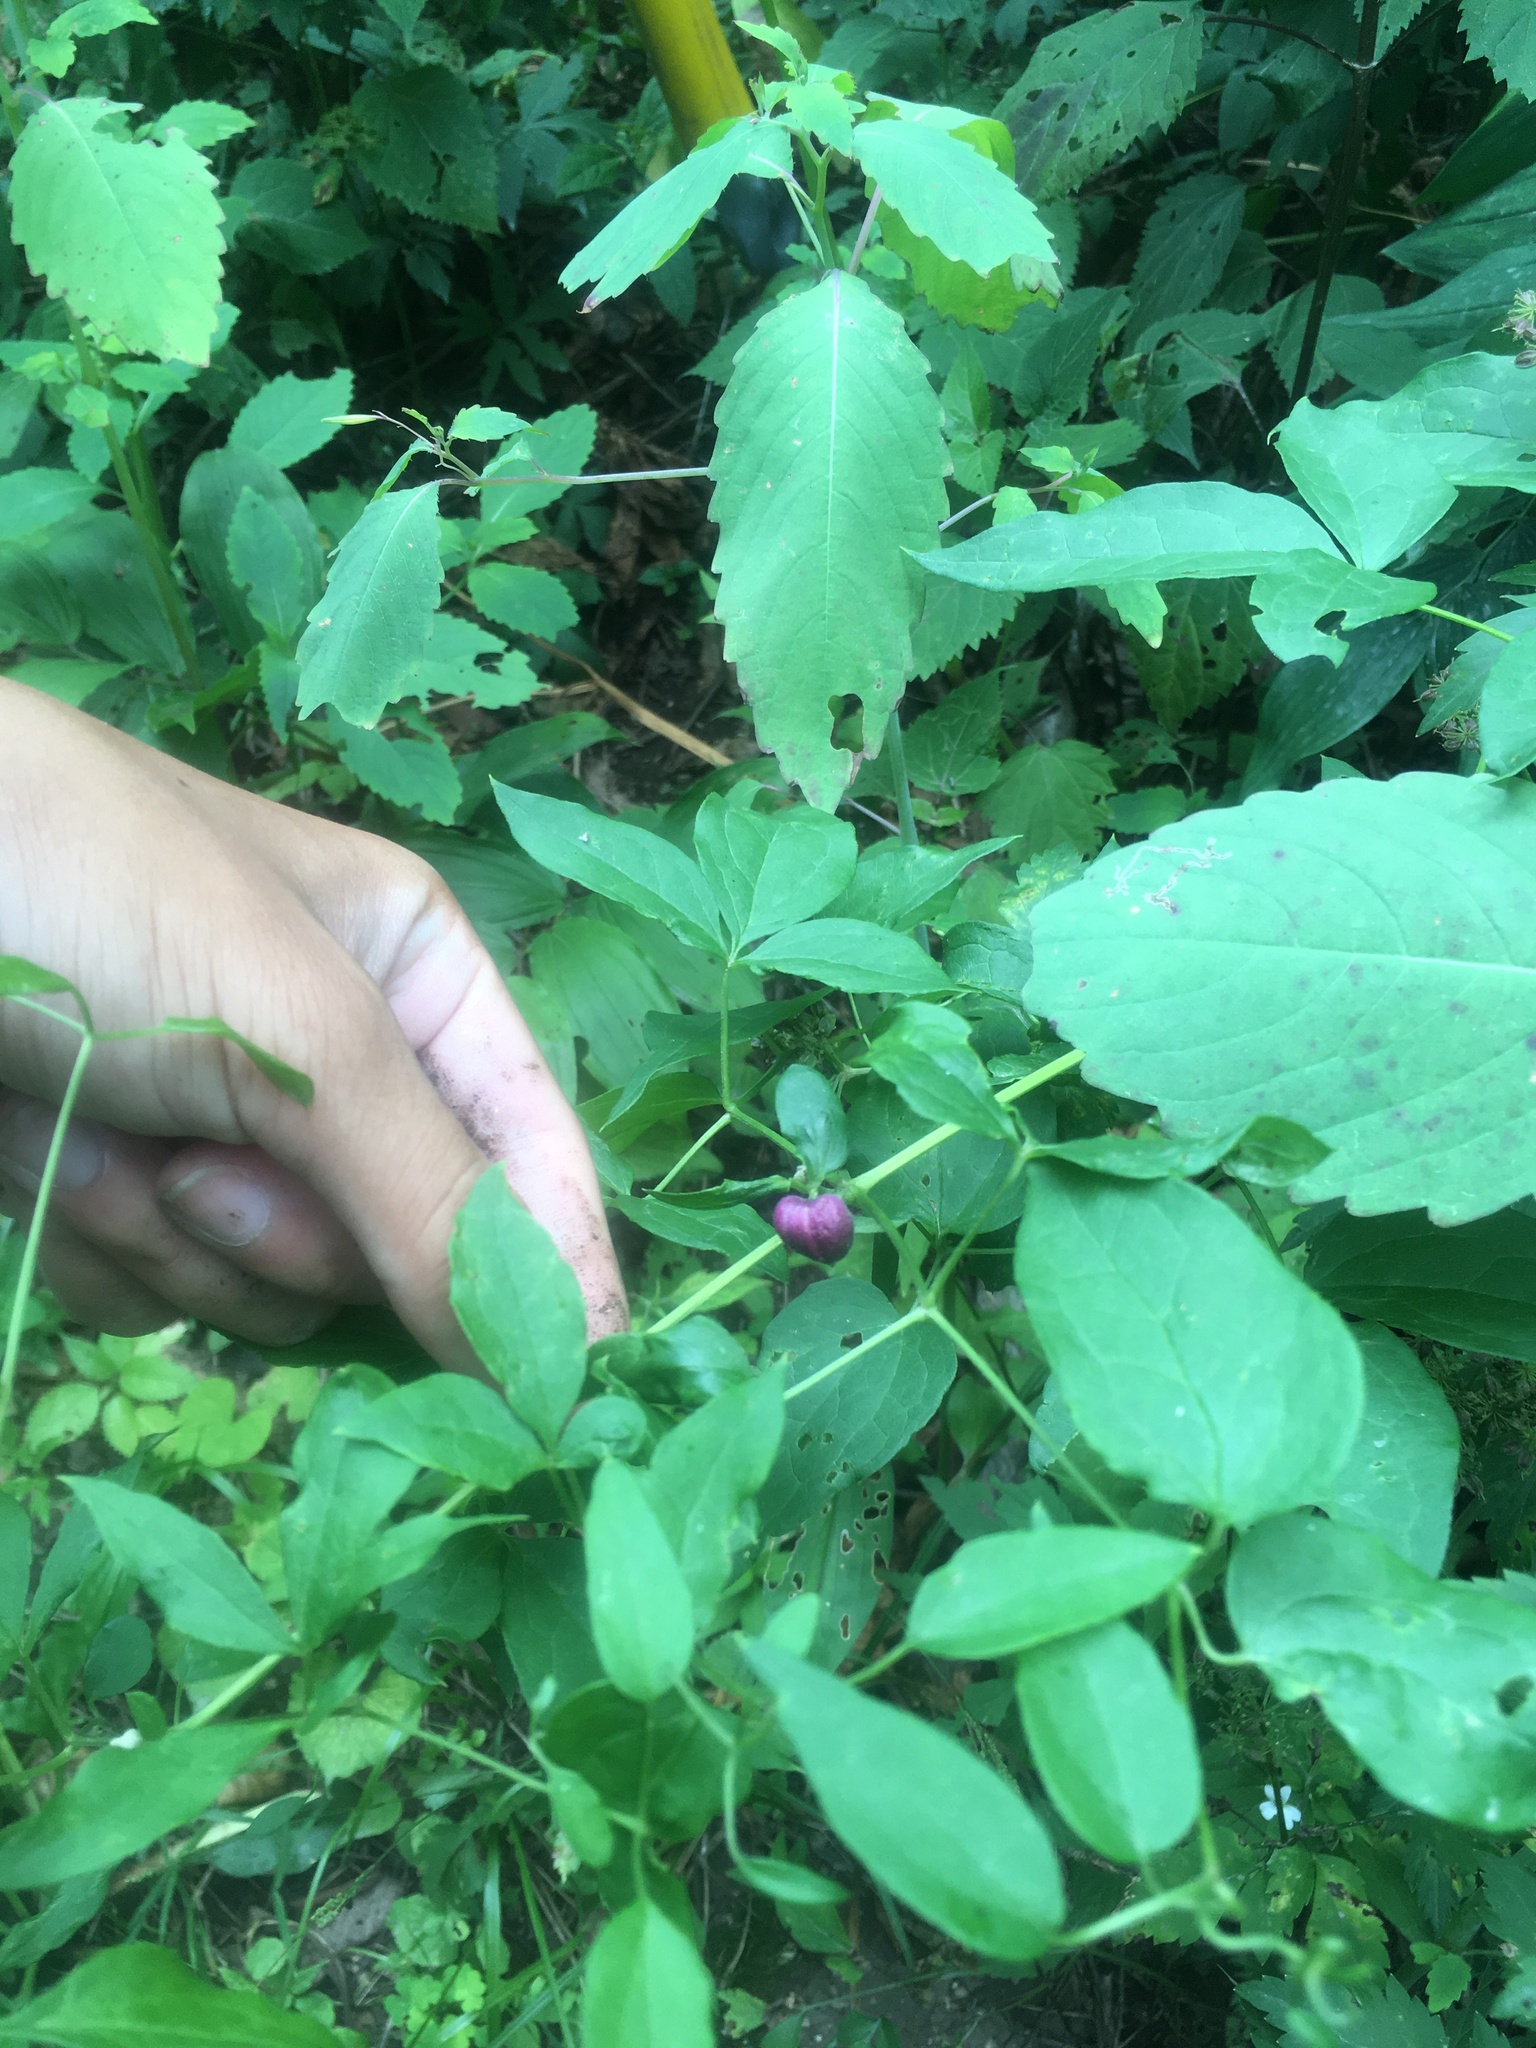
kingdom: Plantae
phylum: Tracheophyta
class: Magnoliopsida
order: Ranunculales
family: Ranunculaceae
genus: Clematis
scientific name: Clematis viorna
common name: Leather-flower
